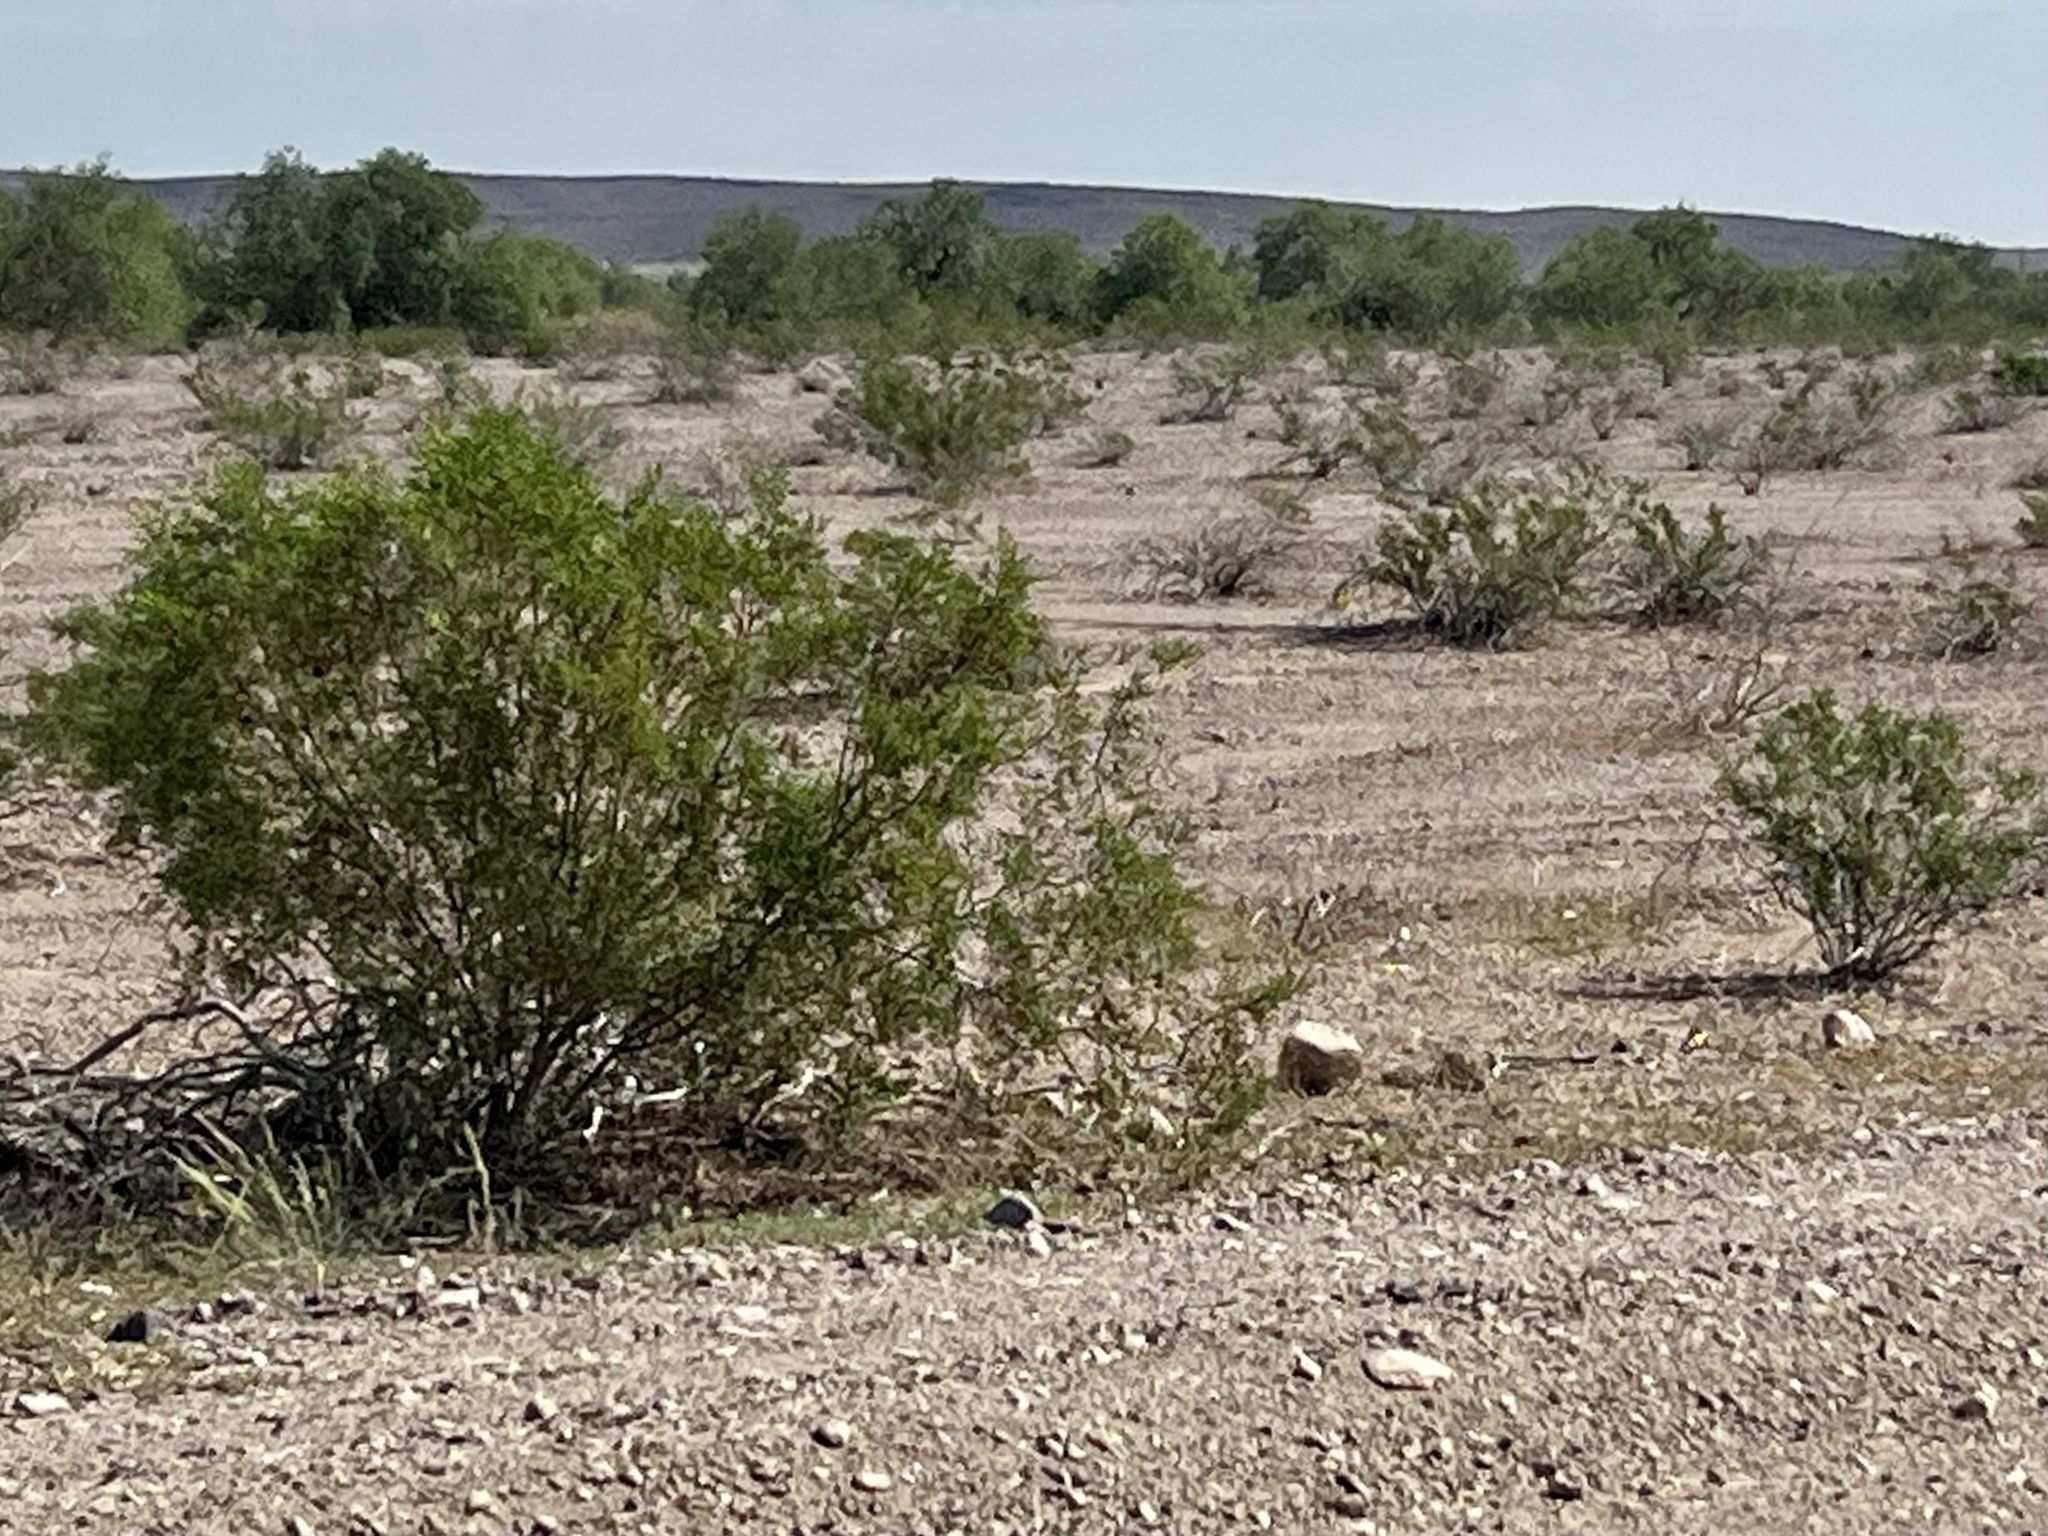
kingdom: Plantae
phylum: Tracheophyta
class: Magnoliopsida
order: Zygophyllales
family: Zygophyllaceae
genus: Larrea
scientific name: Larrea tridentata
